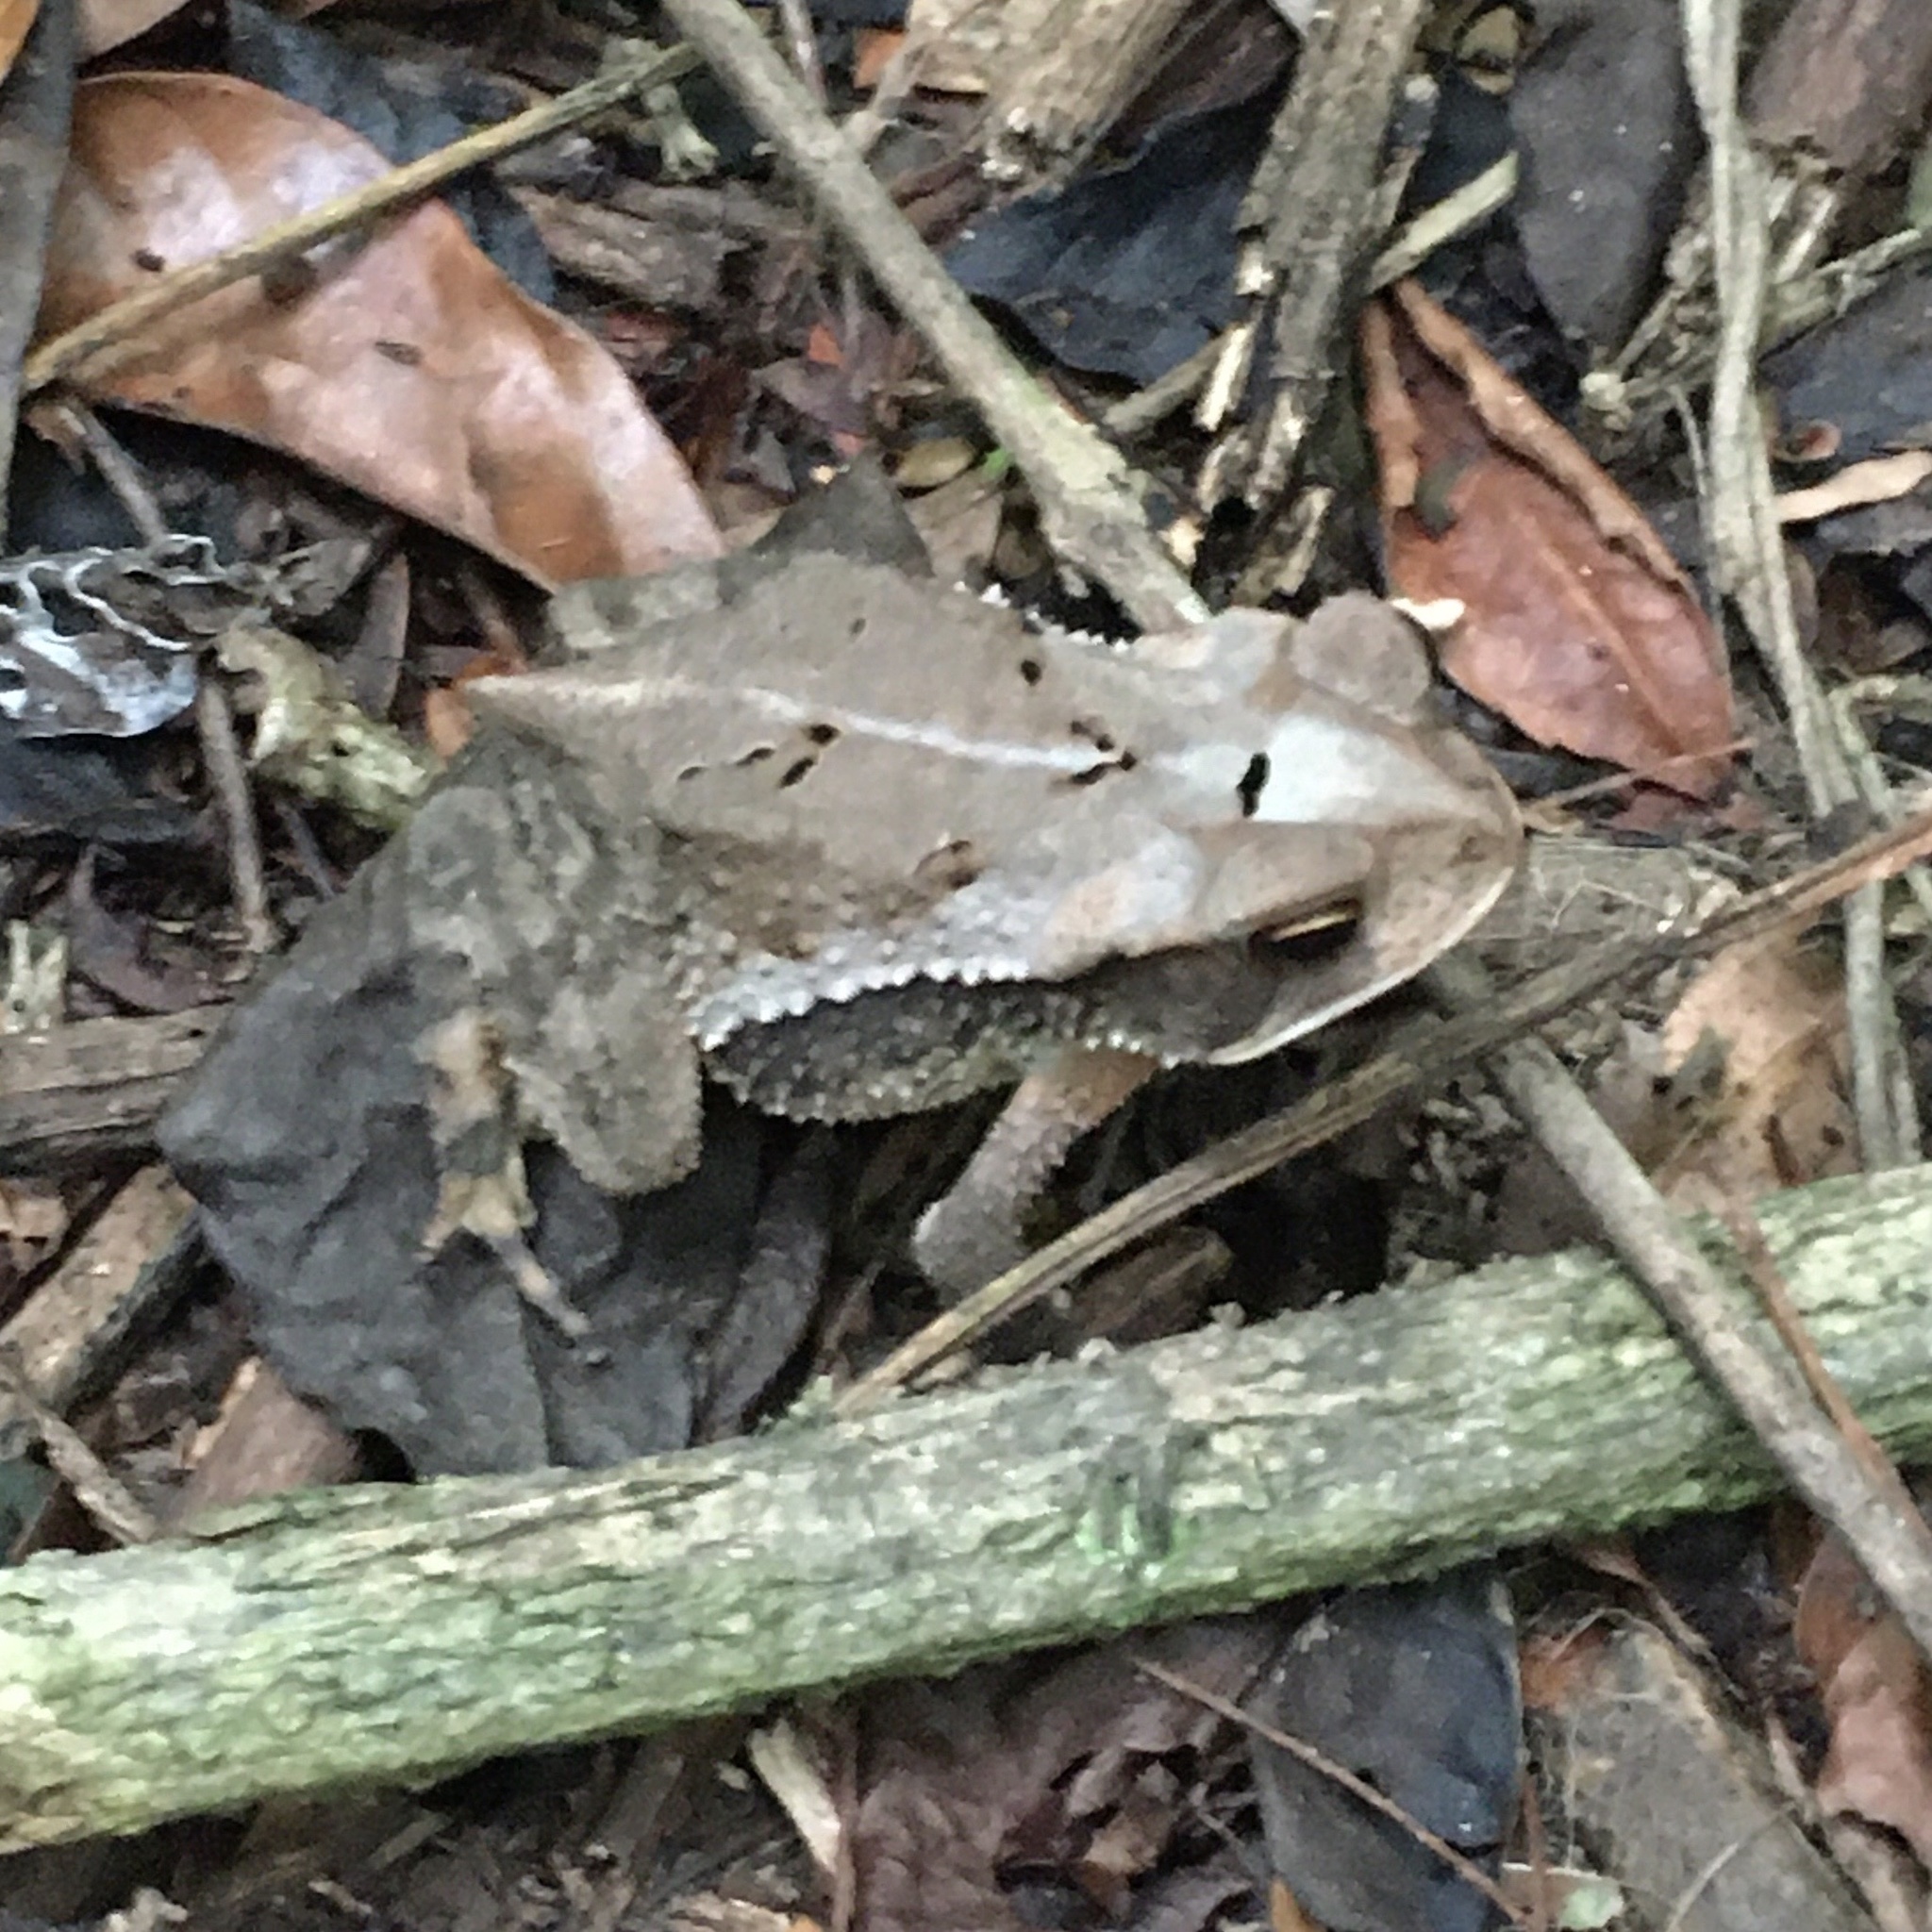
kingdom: Animalia
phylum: Chordata
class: Amphibia
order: Anura
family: Bufonidae
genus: Incilius
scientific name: Incilius valliceps
